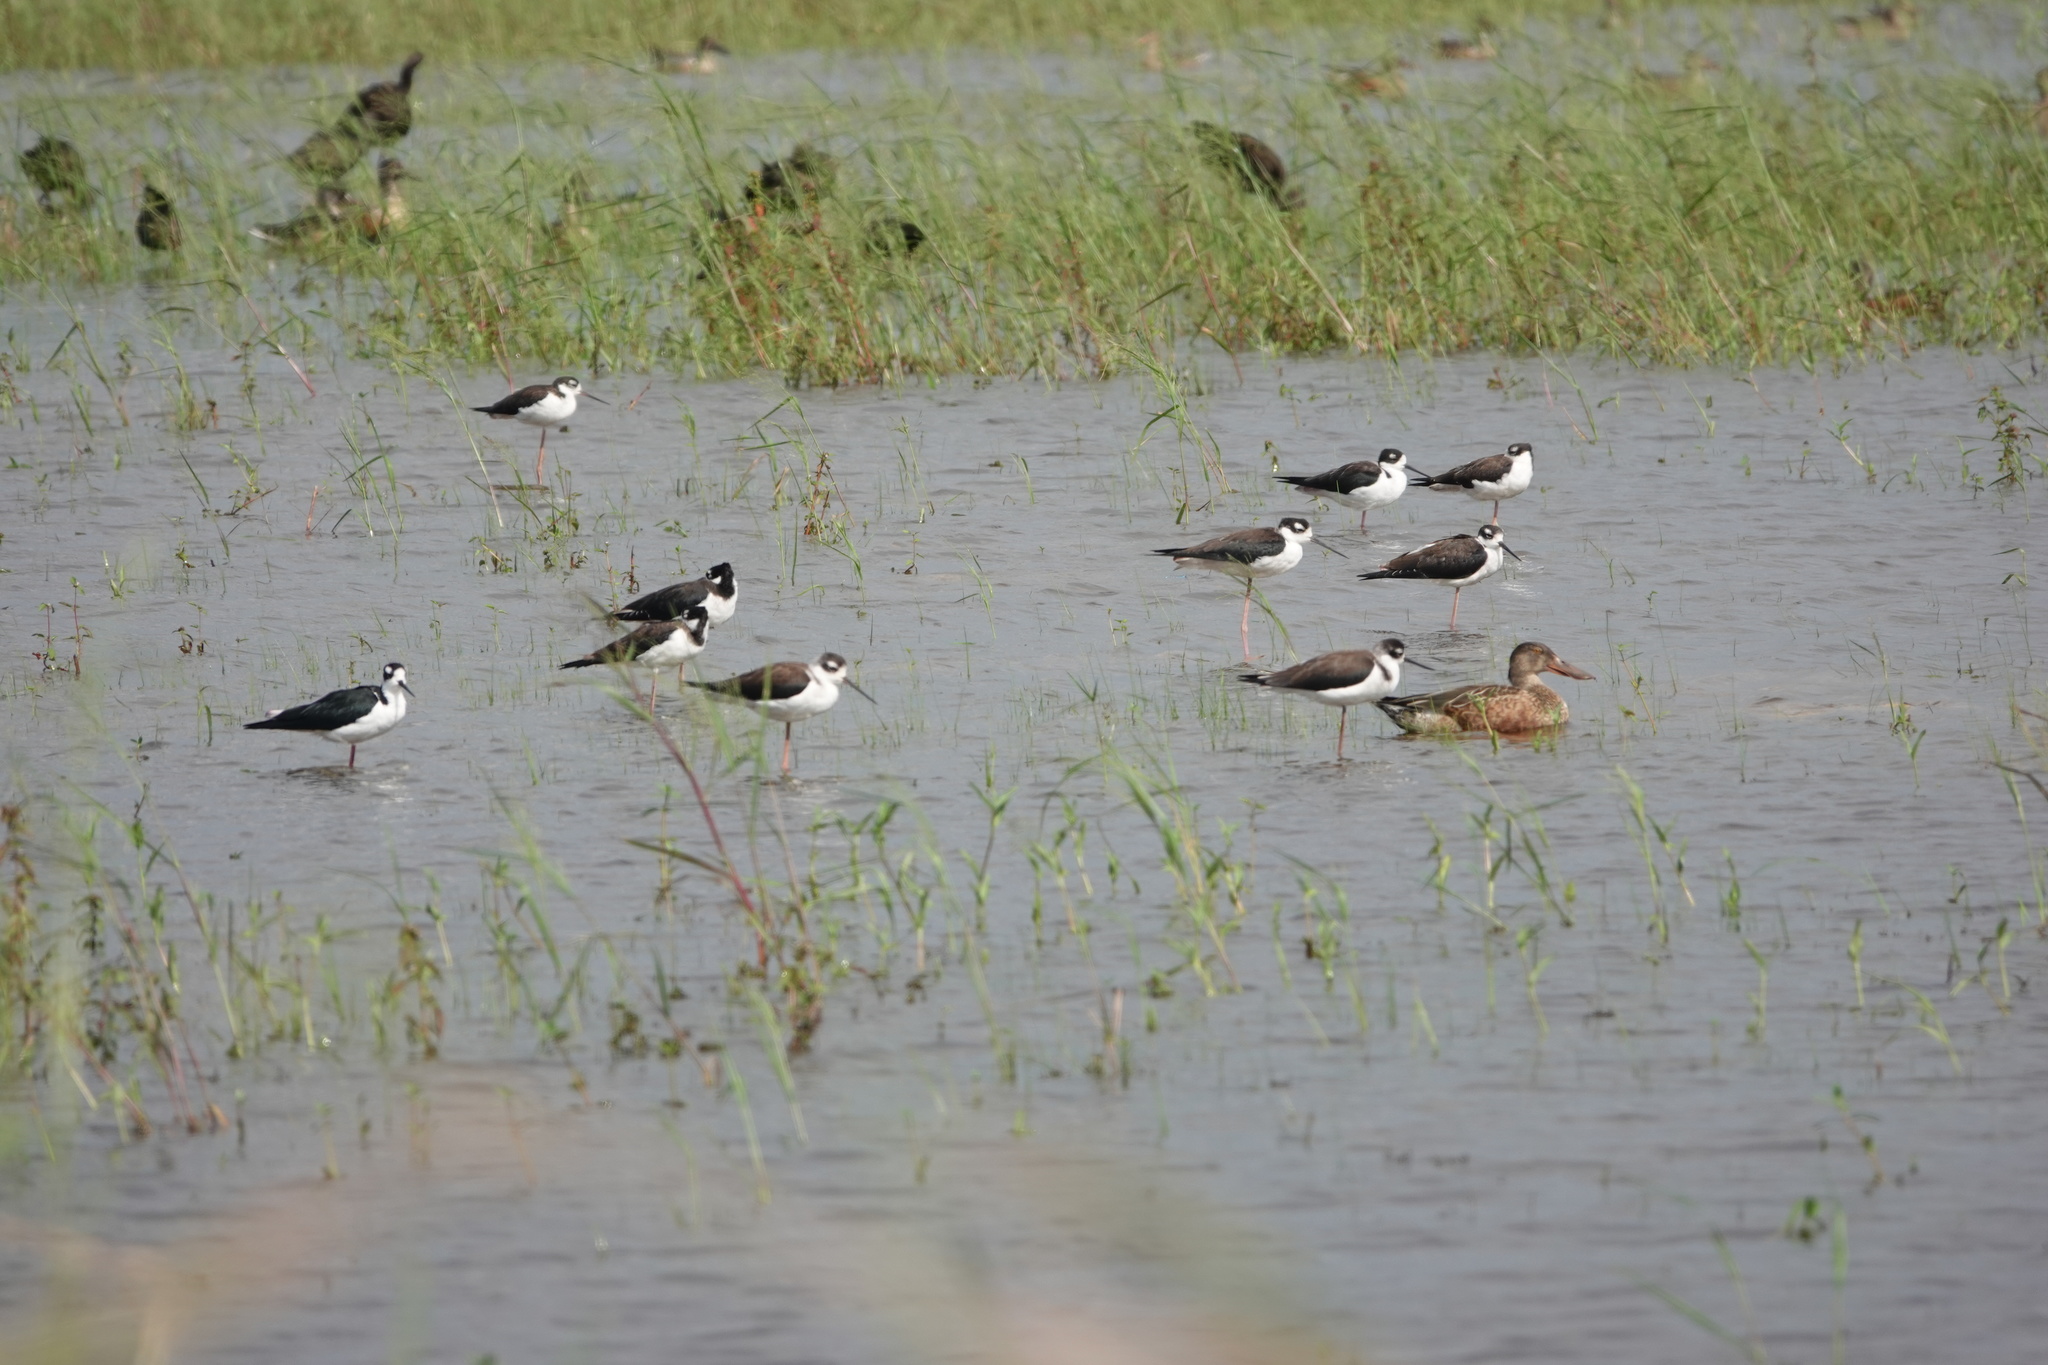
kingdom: Animalia
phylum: Chordata
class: Aves
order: Charadriiformes
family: Recurvirostridae
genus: Himantopus
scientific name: Himantopus mexicanus
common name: Black-necked stilt
